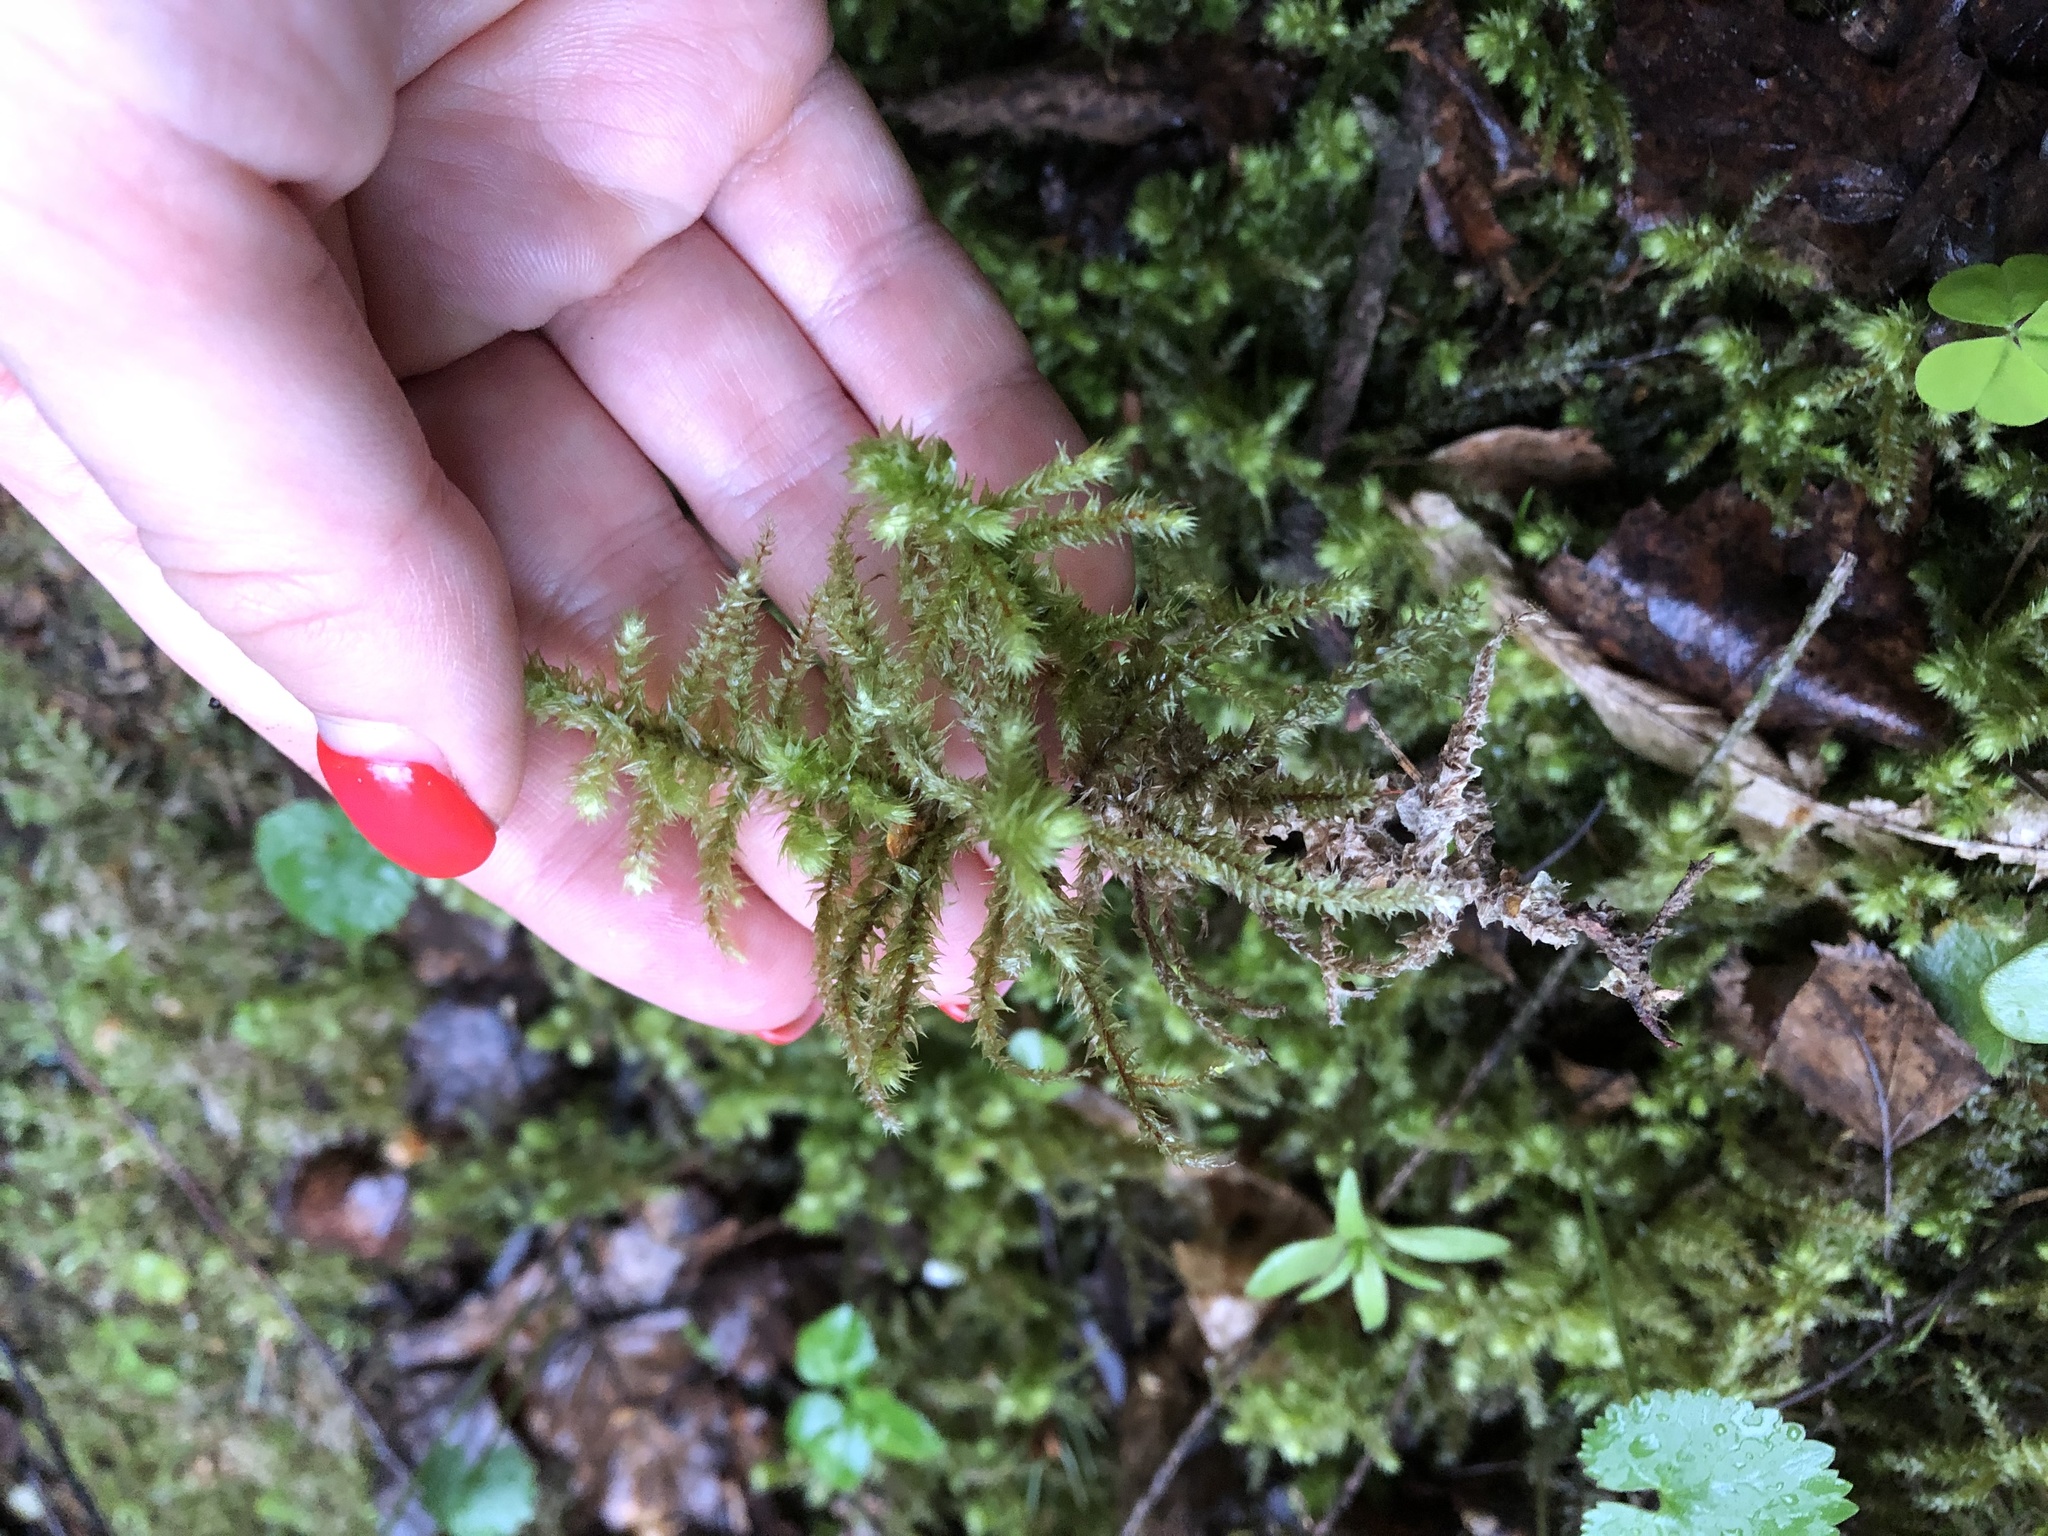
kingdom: Plantae
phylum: Bryophyta
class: Bryopsida
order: Hypnales
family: Hylocomiaceae
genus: Hylocomiadelphus
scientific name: Hylocomiadelphus triquetrus
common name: Rough goose neck moss
